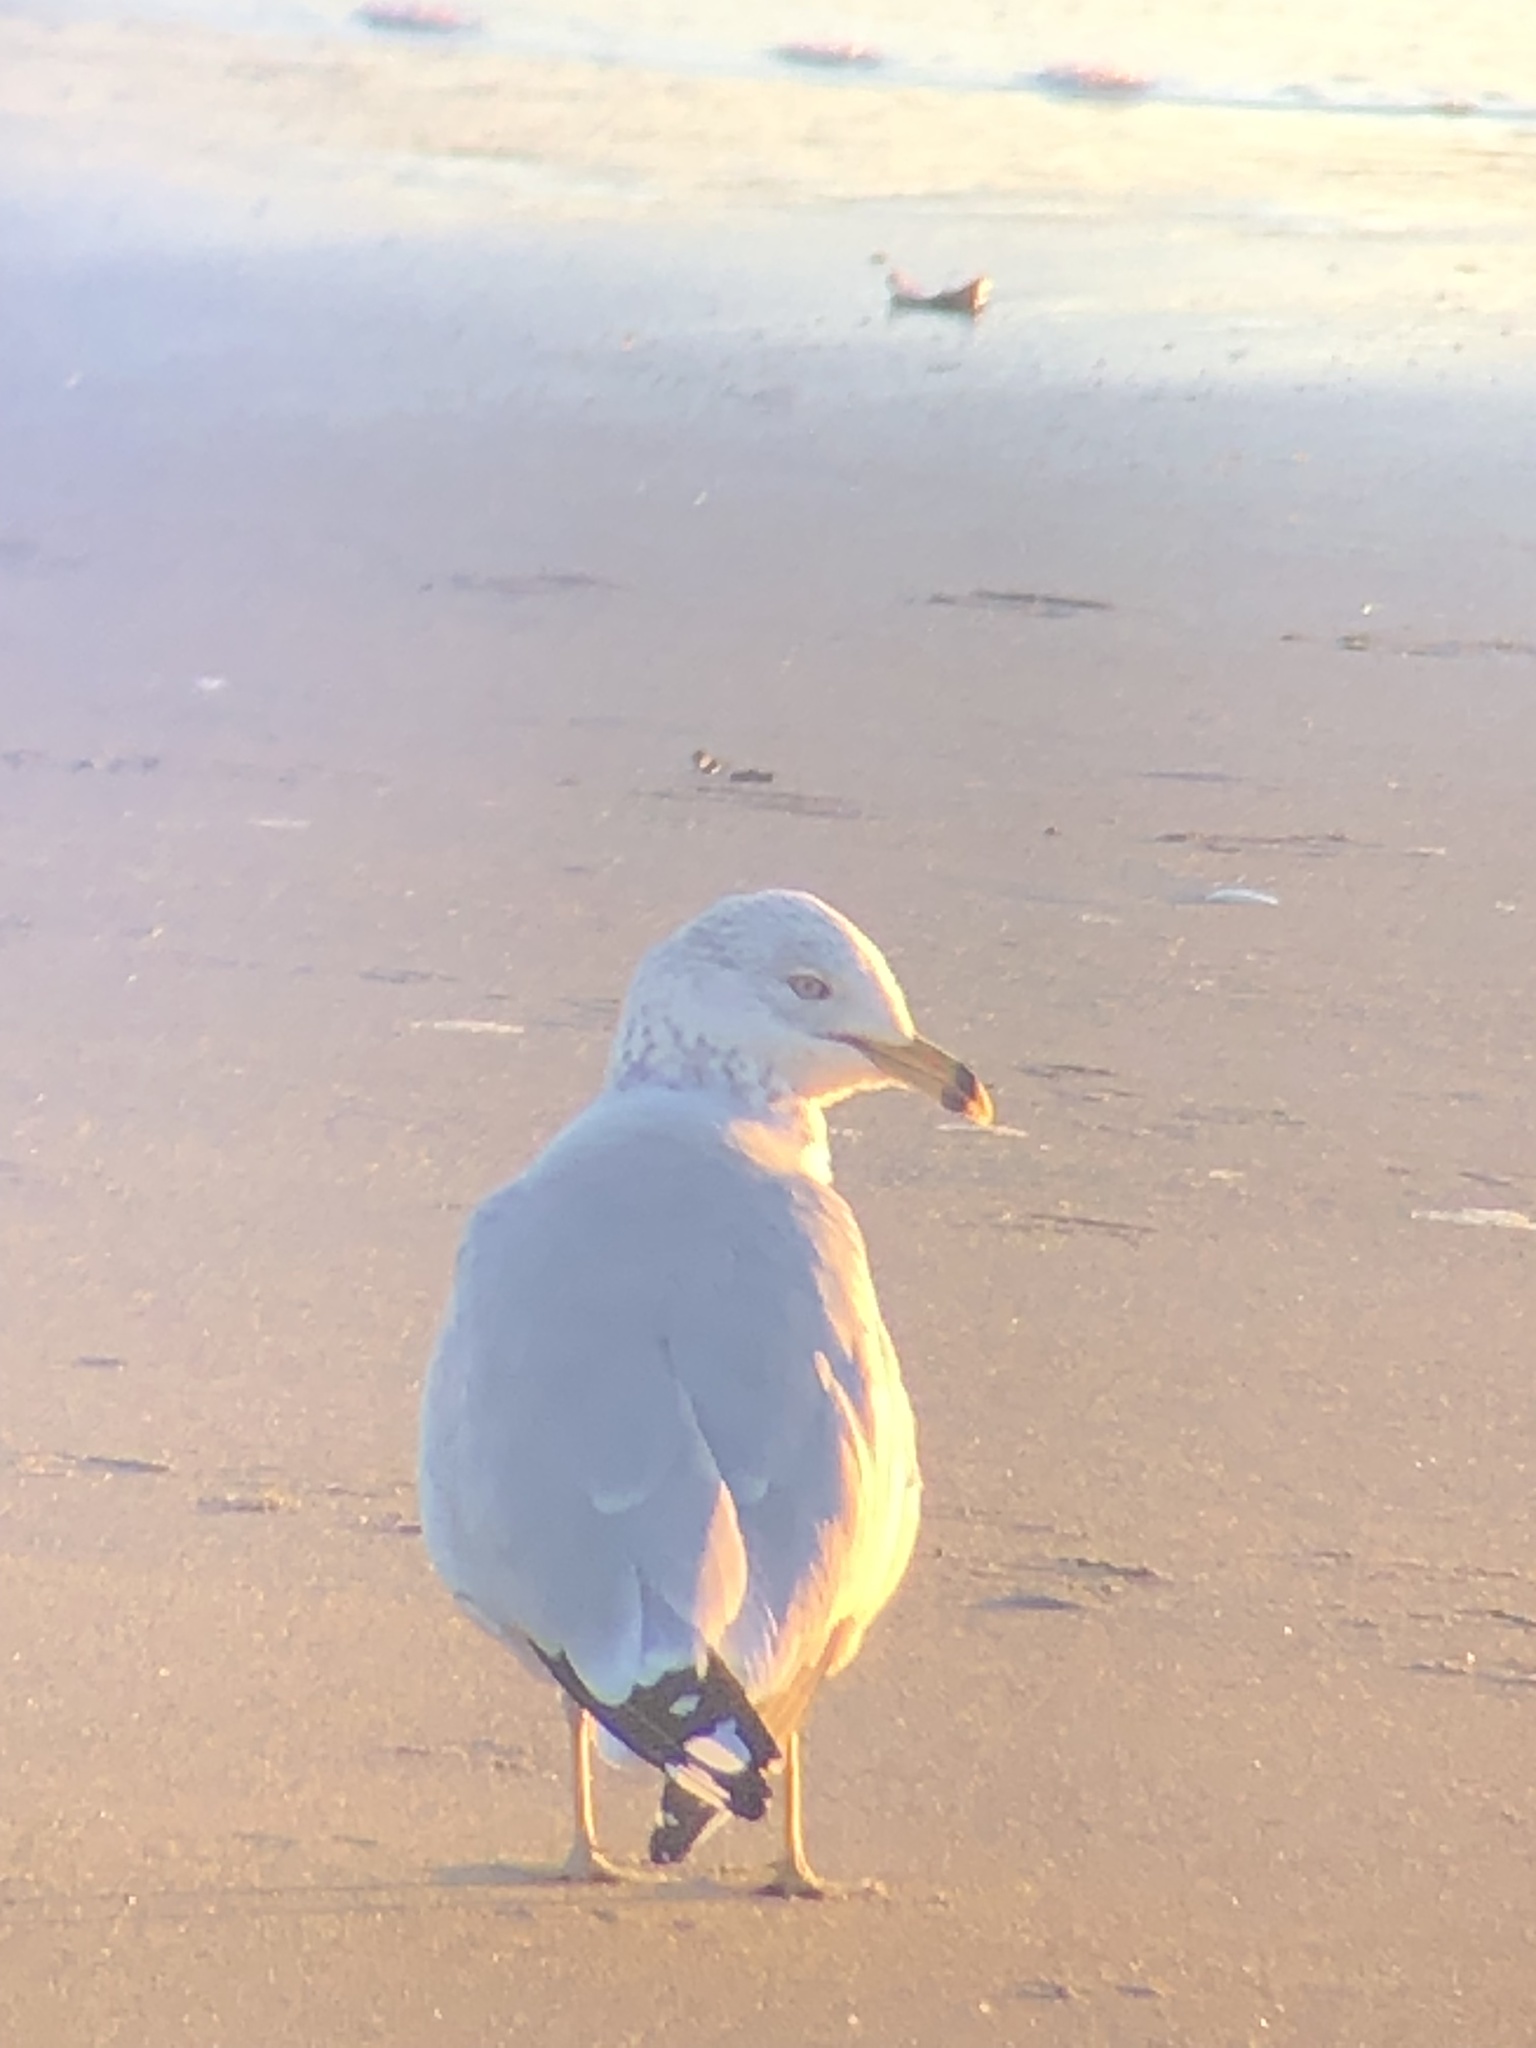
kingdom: Animalia
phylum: Chordata
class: Aves
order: Charadriiformes
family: Laridae
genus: Larus
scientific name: Larus delawarensis
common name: Ring-billed gull
